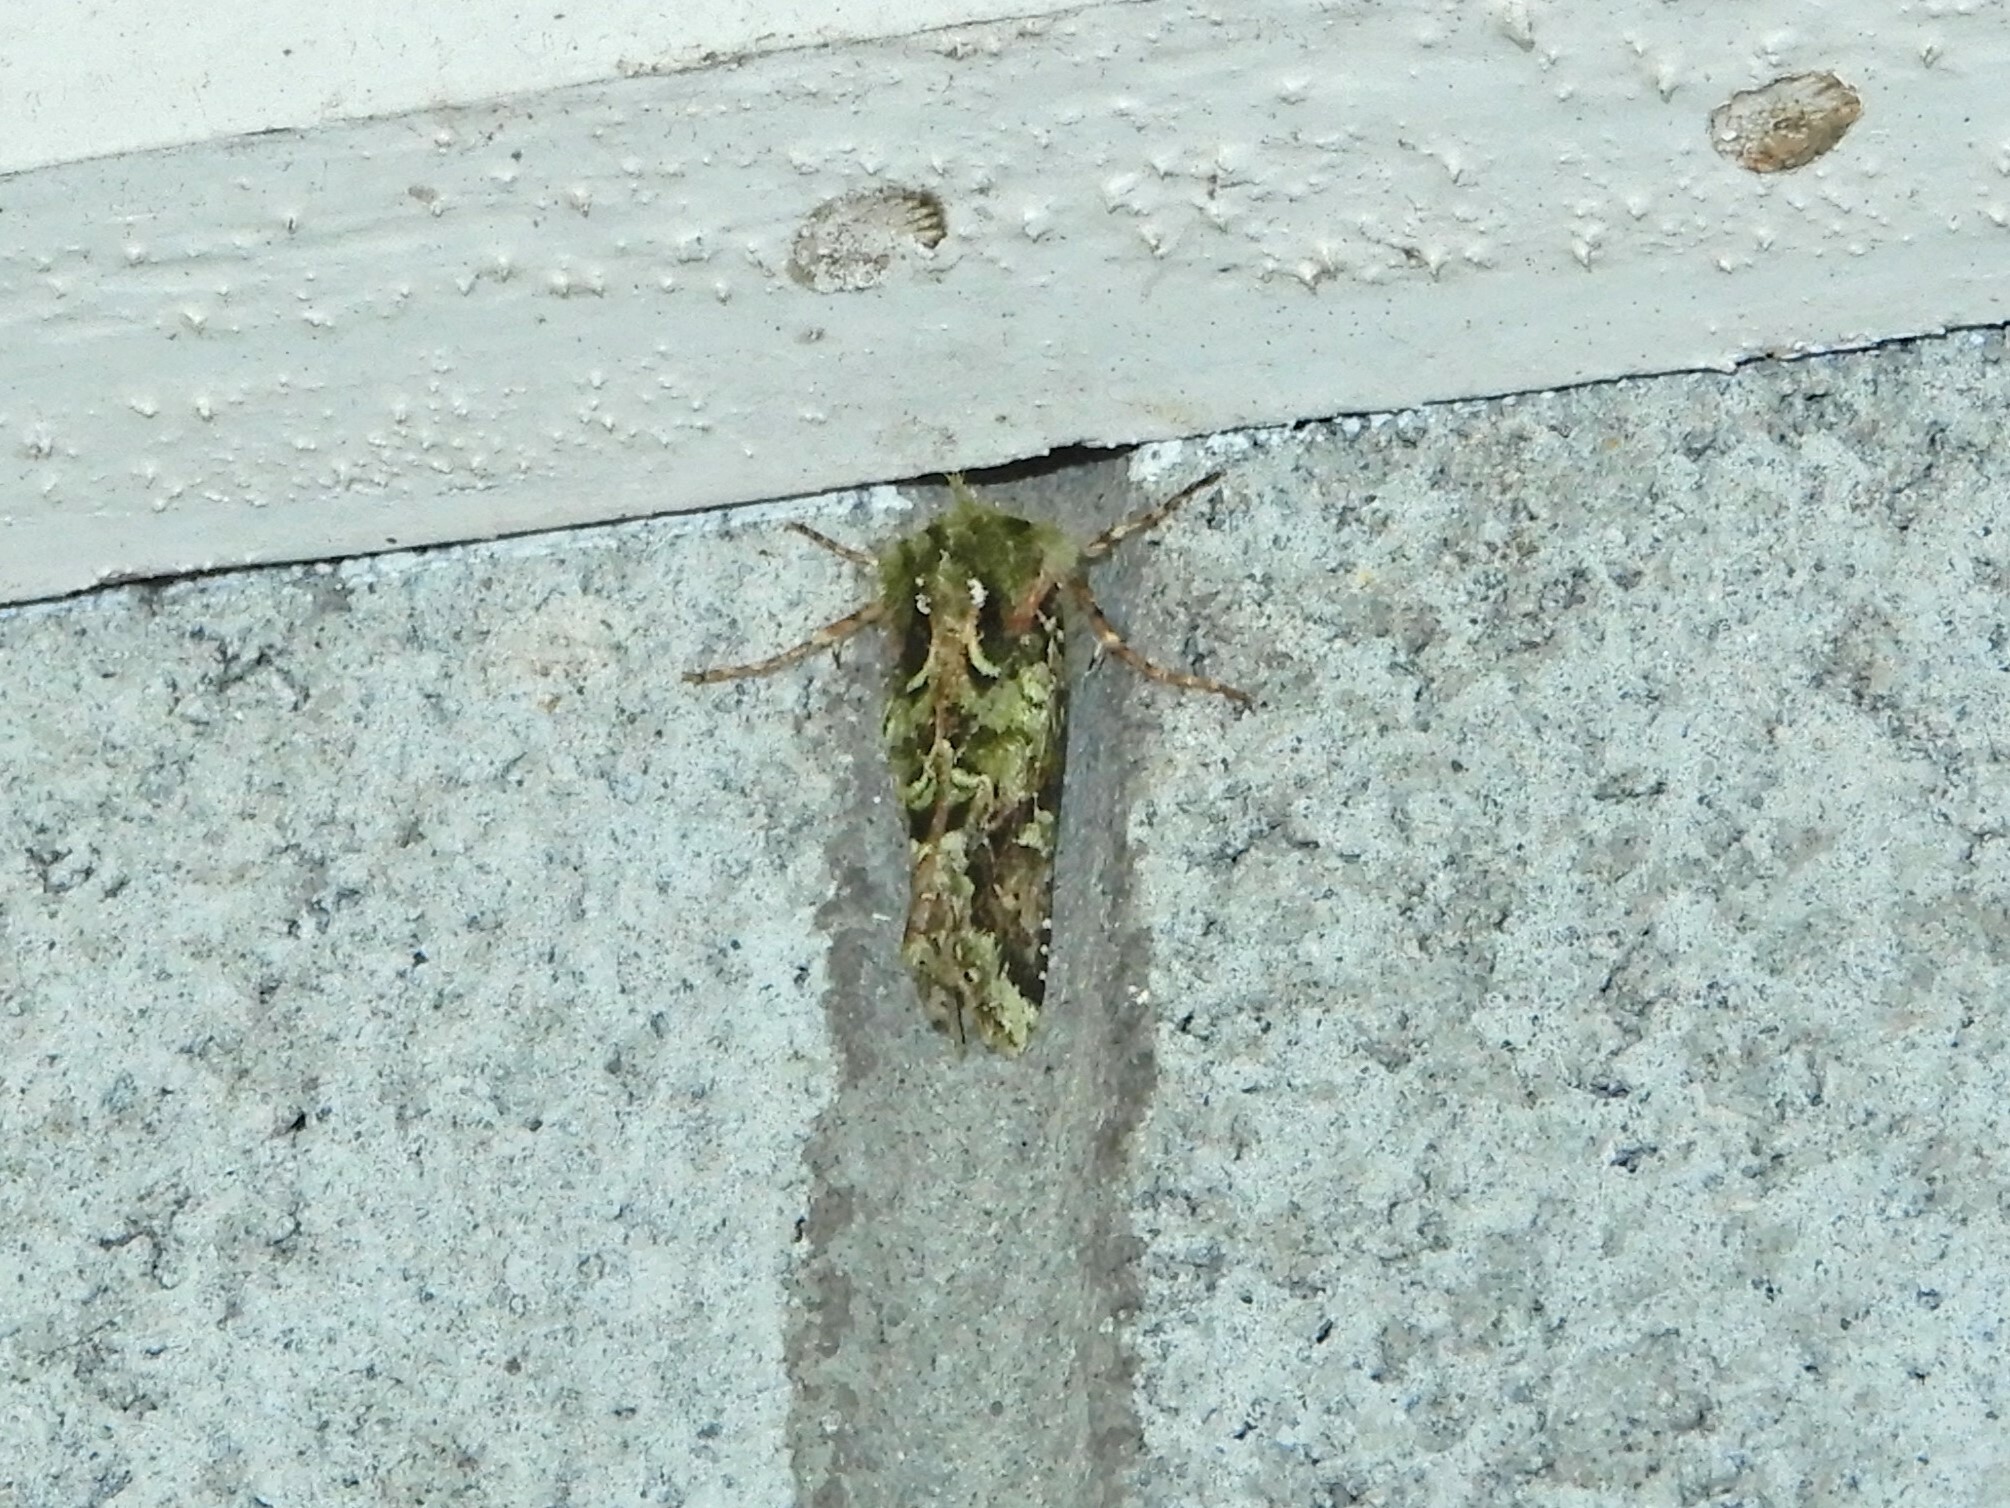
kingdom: Animalia
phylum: Arthropoda
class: Insecta
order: Lepidoptera
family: Noctuidae
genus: Feredayia
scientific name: Feredayia grammosa
